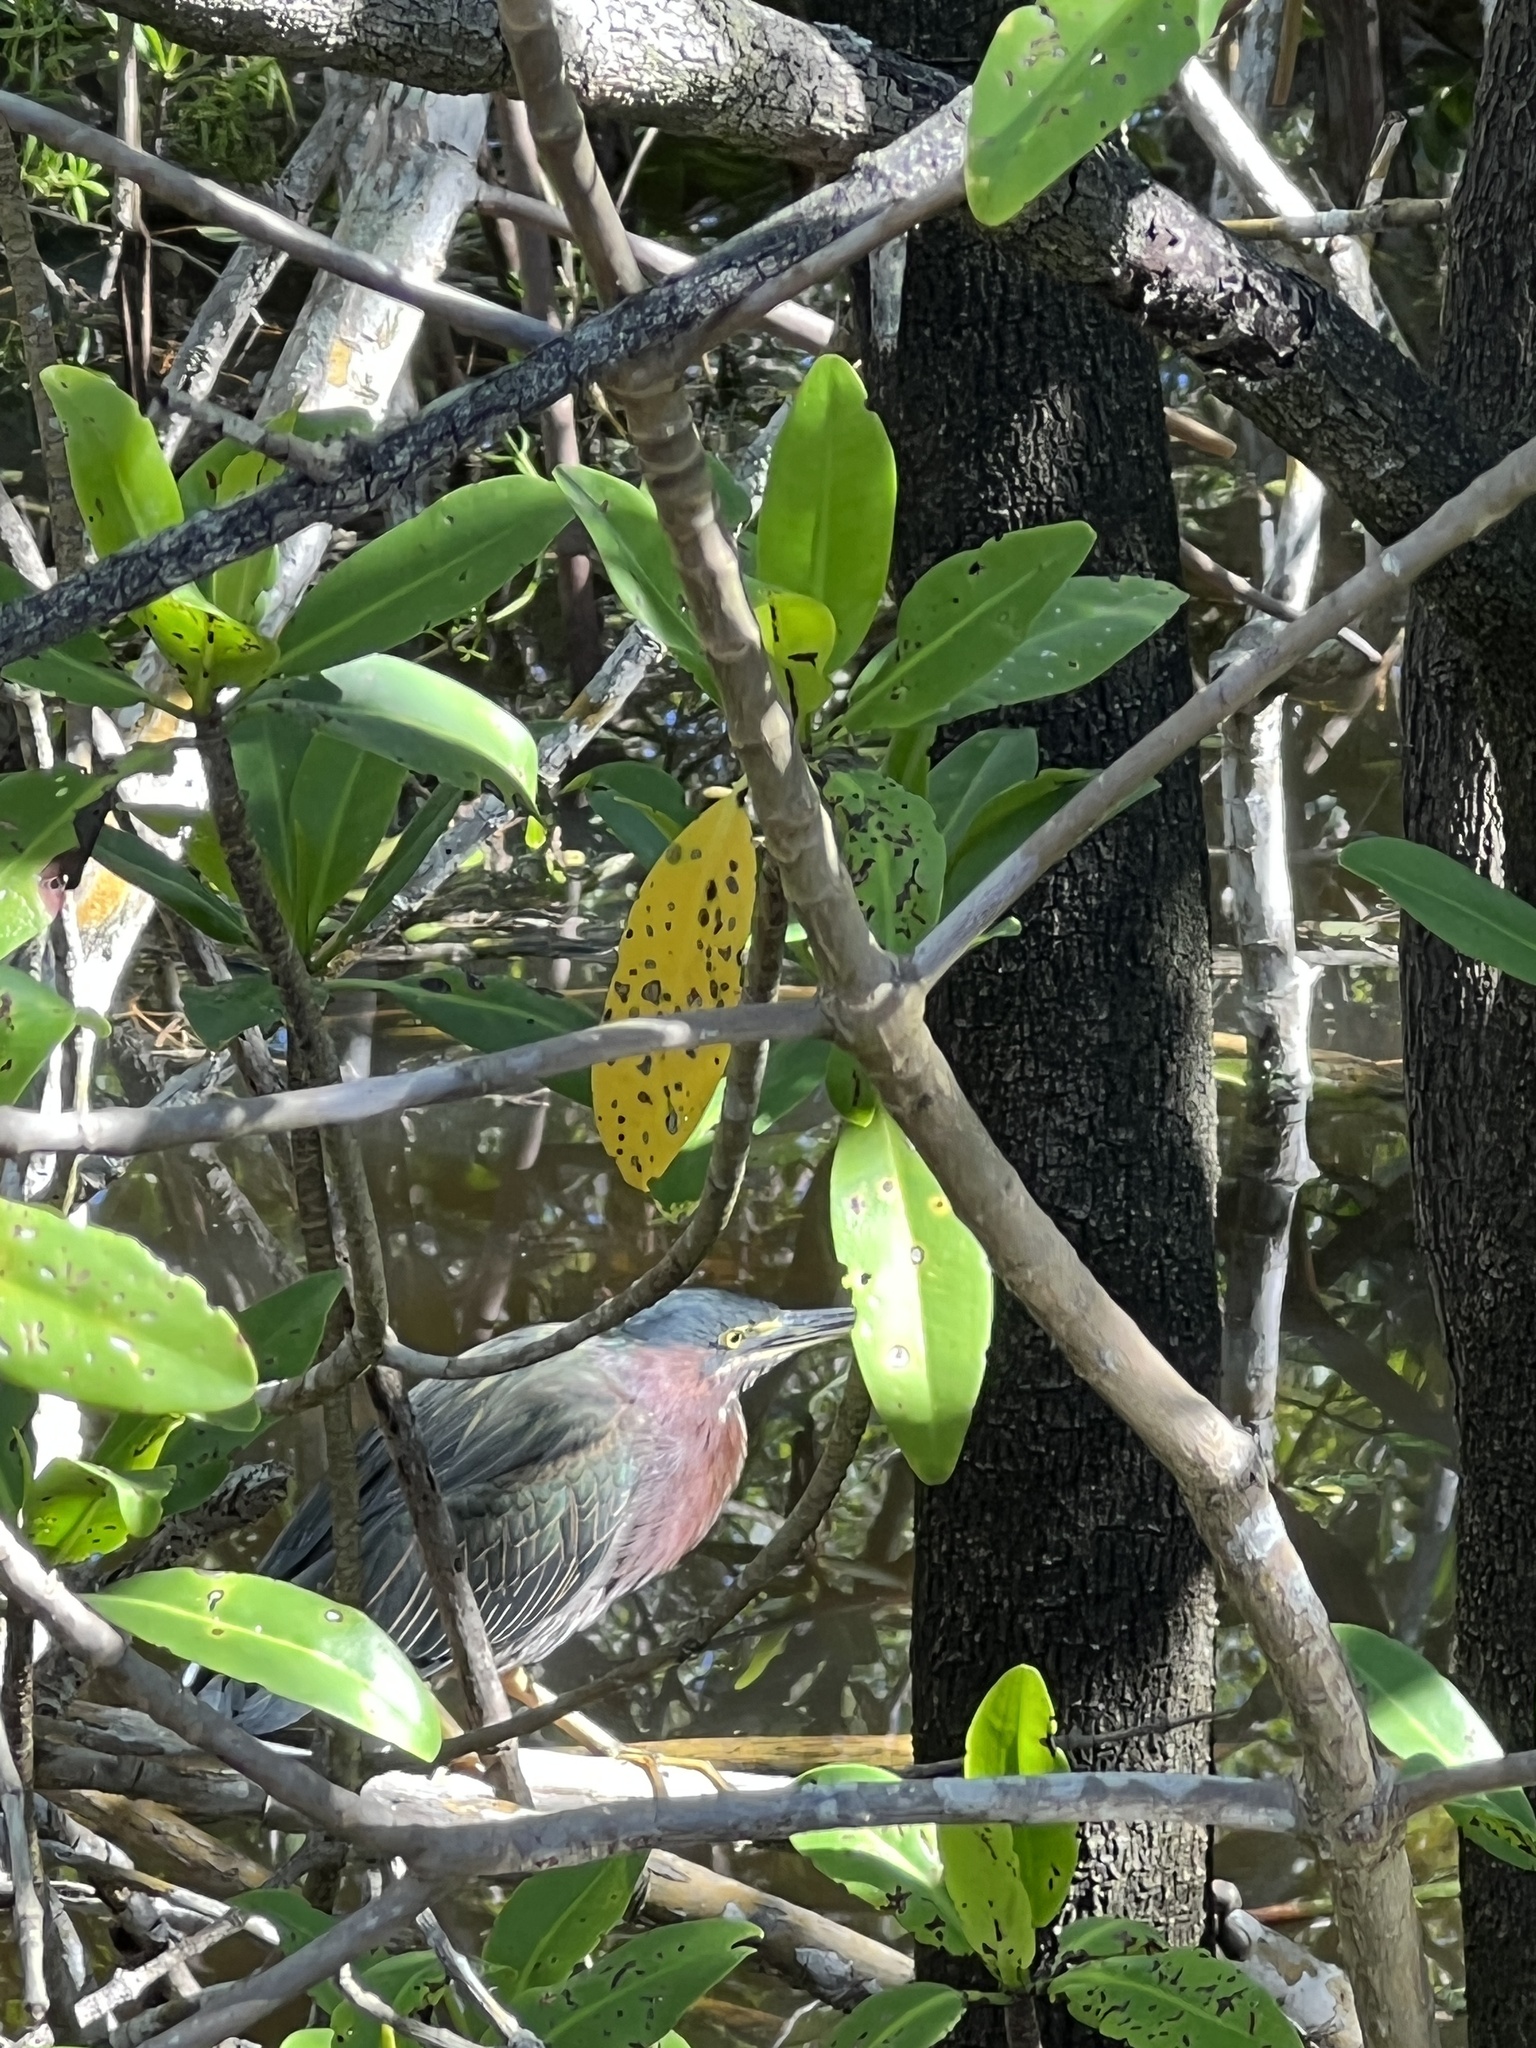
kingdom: Animalia
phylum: Chordata
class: Aves
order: Pelecaniformes
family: Ardeidae
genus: Butorides
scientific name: Butorides virescens
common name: Green heron
